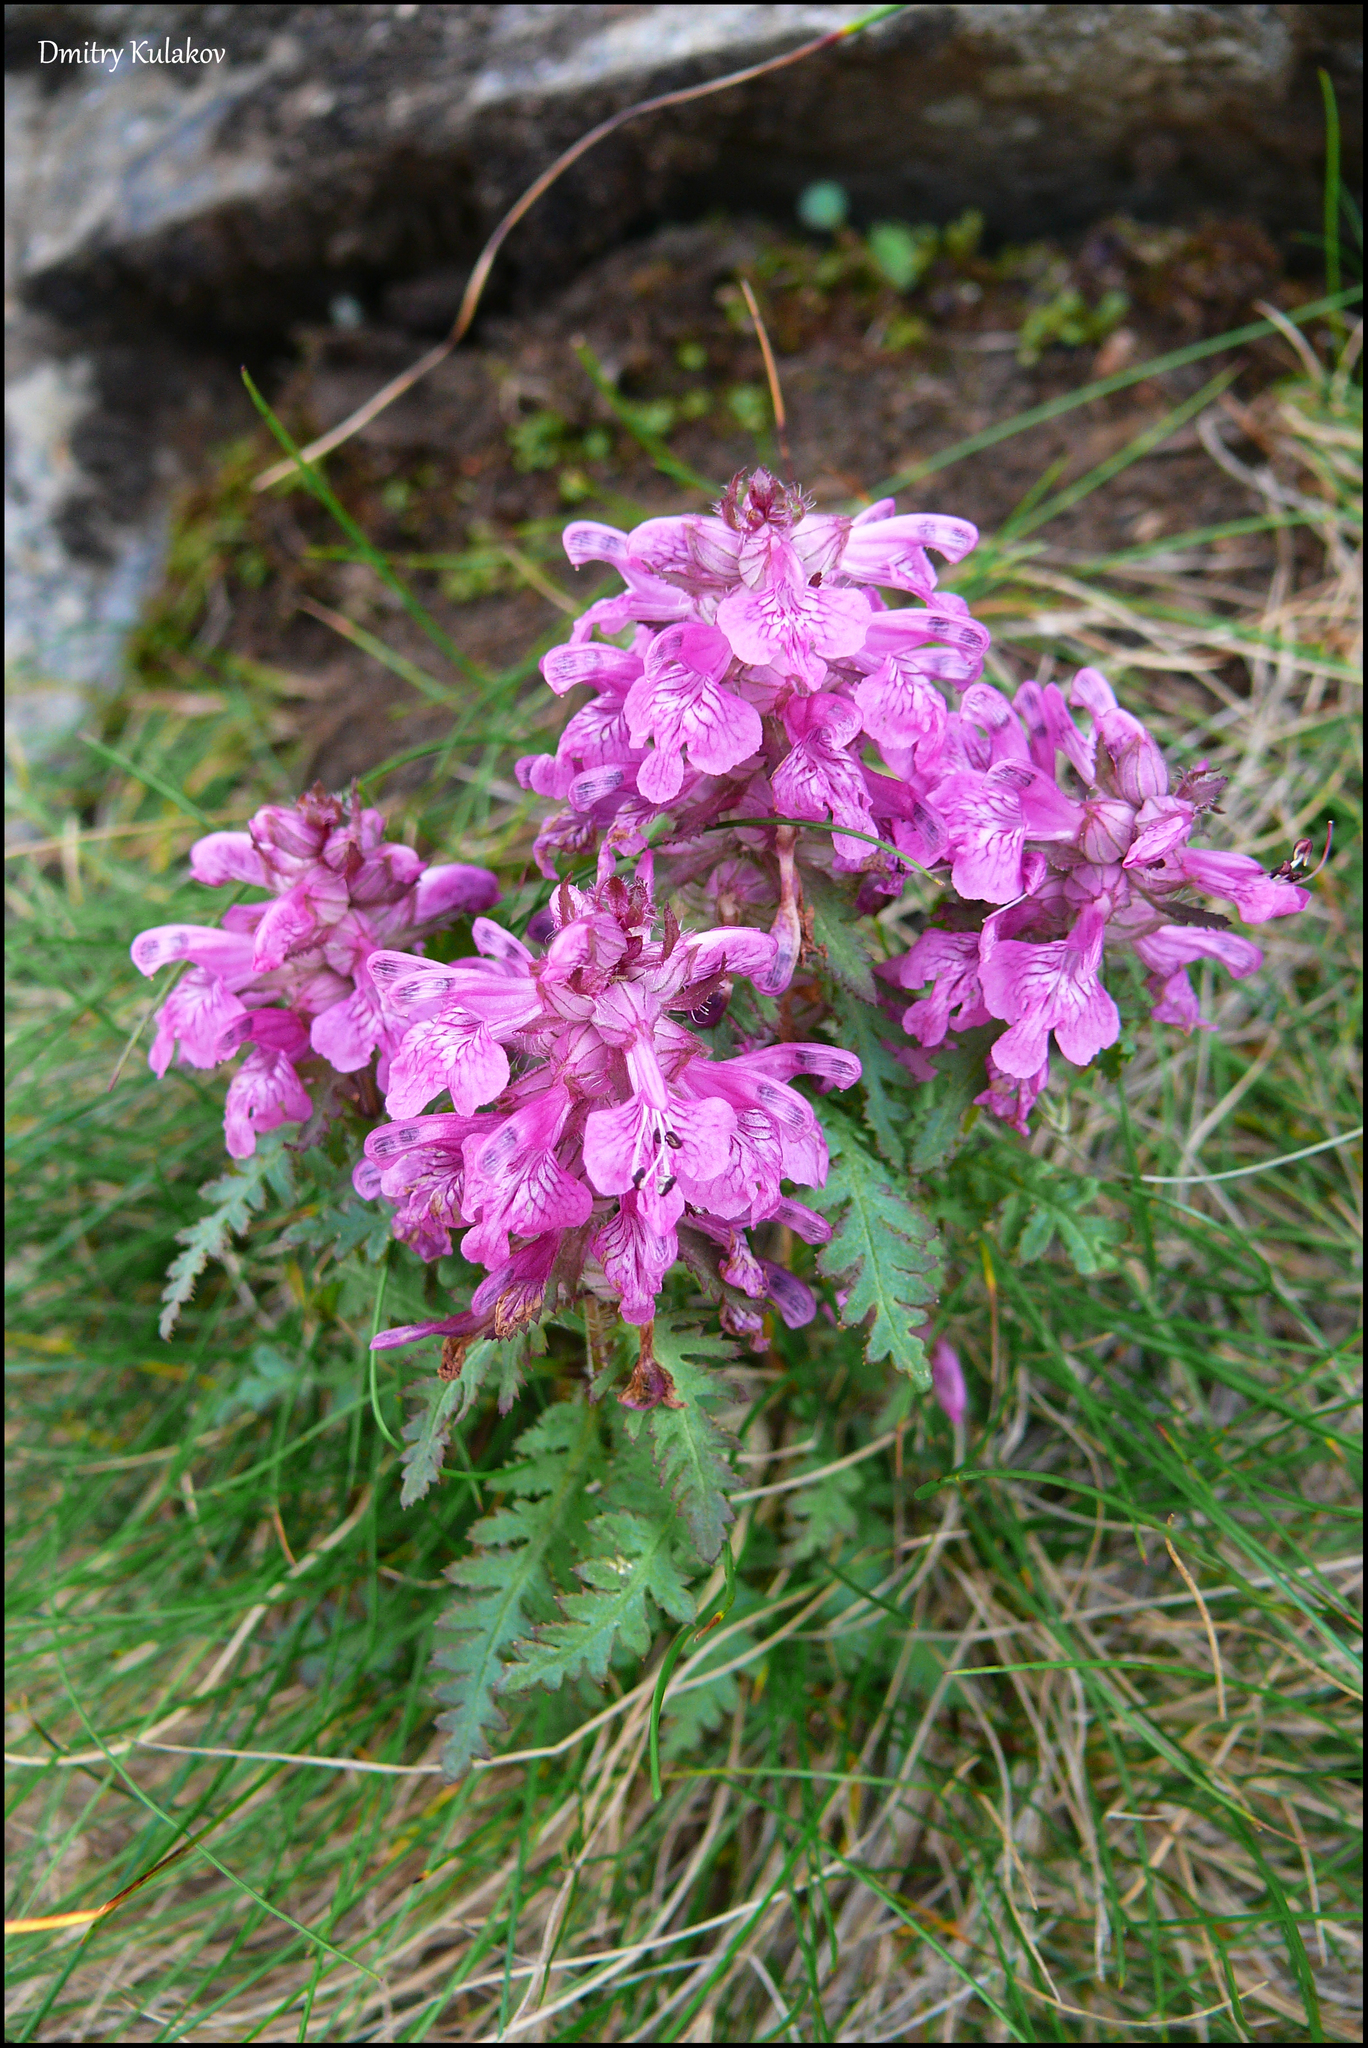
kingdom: Plantae
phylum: Tracheophyta
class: Magnoliopsida
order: Lamiales
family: Orobanchaceae
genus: Pedicularis
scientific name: Pedicularis verticillata
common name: Whorled lousewort
